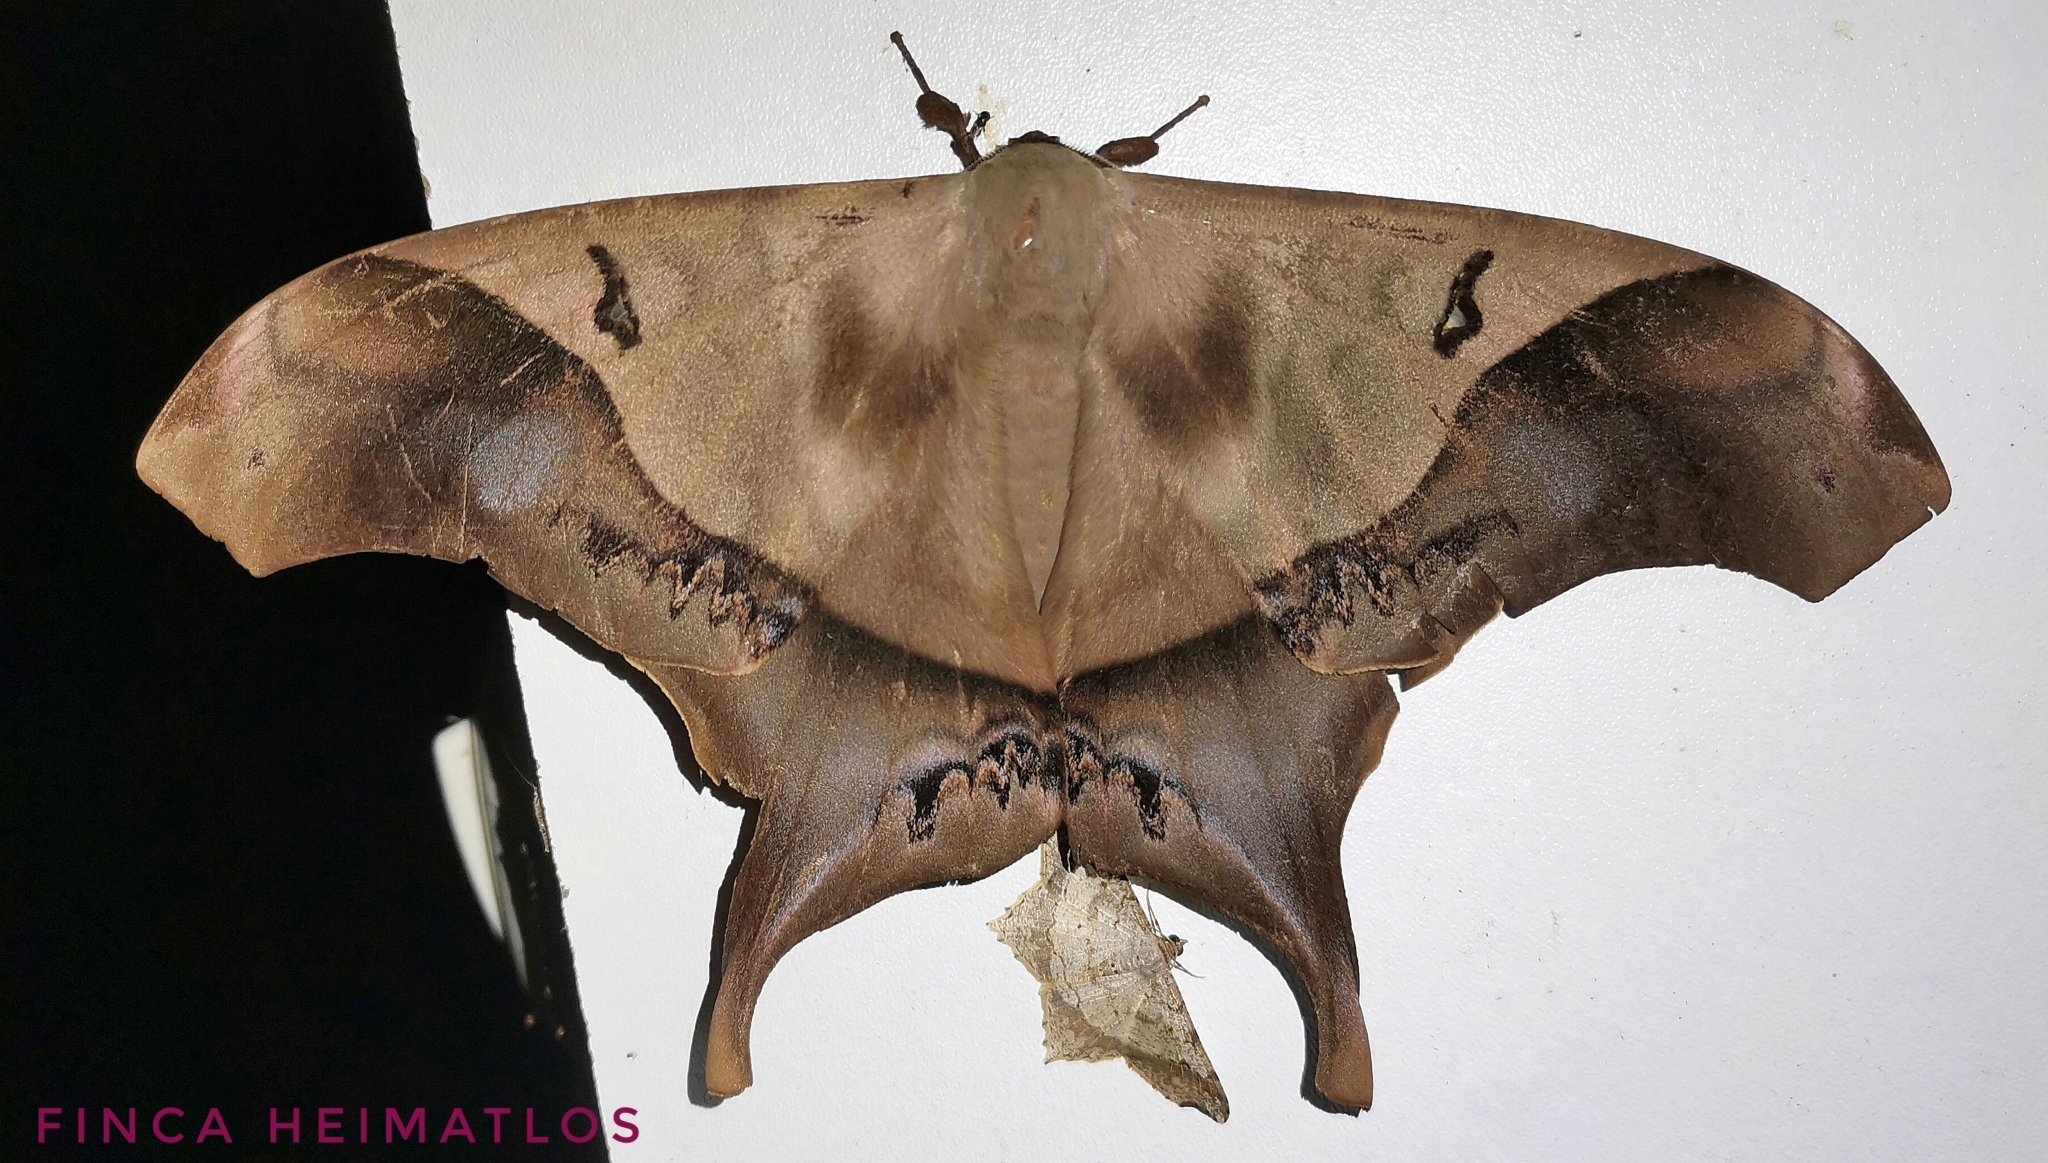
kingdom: Animalia
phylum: Arthropoda
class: Insecta
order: Lepidoptera
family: Saturniidae
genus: Titaea
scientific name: Titaea timur
